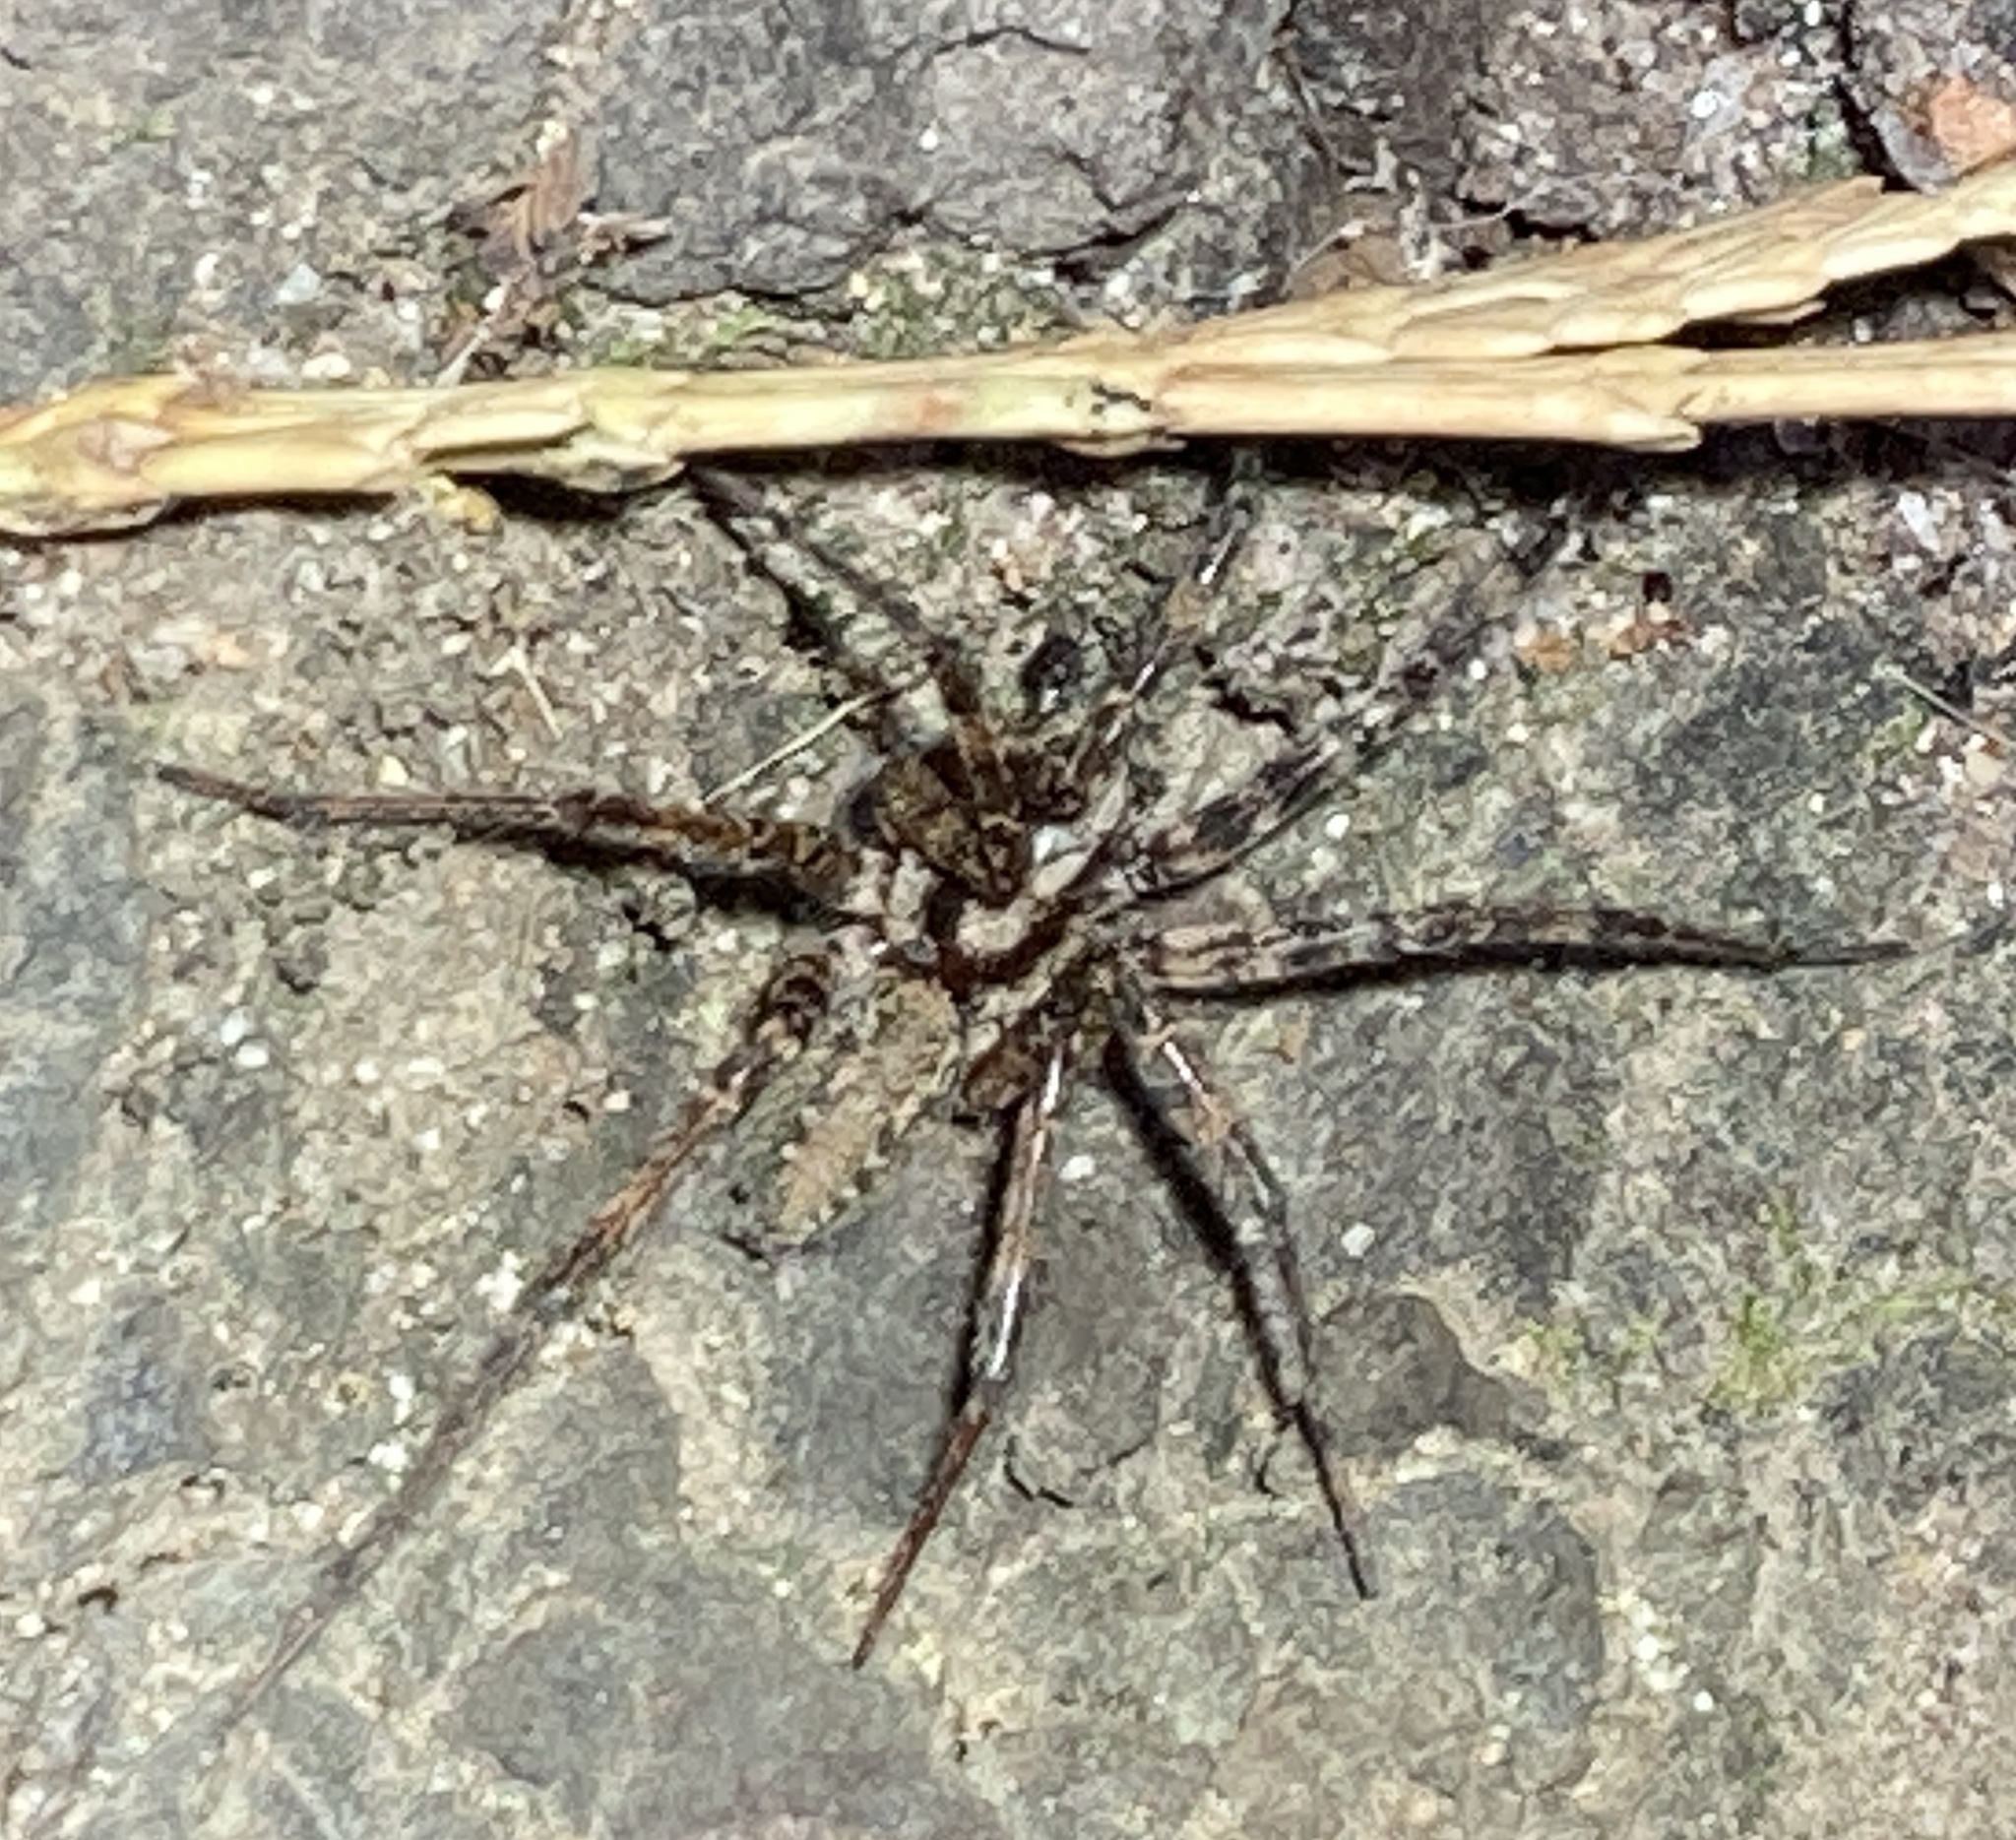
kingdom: Animalia
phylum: Arthropoda
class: Arachnida
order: Araneae
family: Agelenidae
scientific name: Agelenidae
